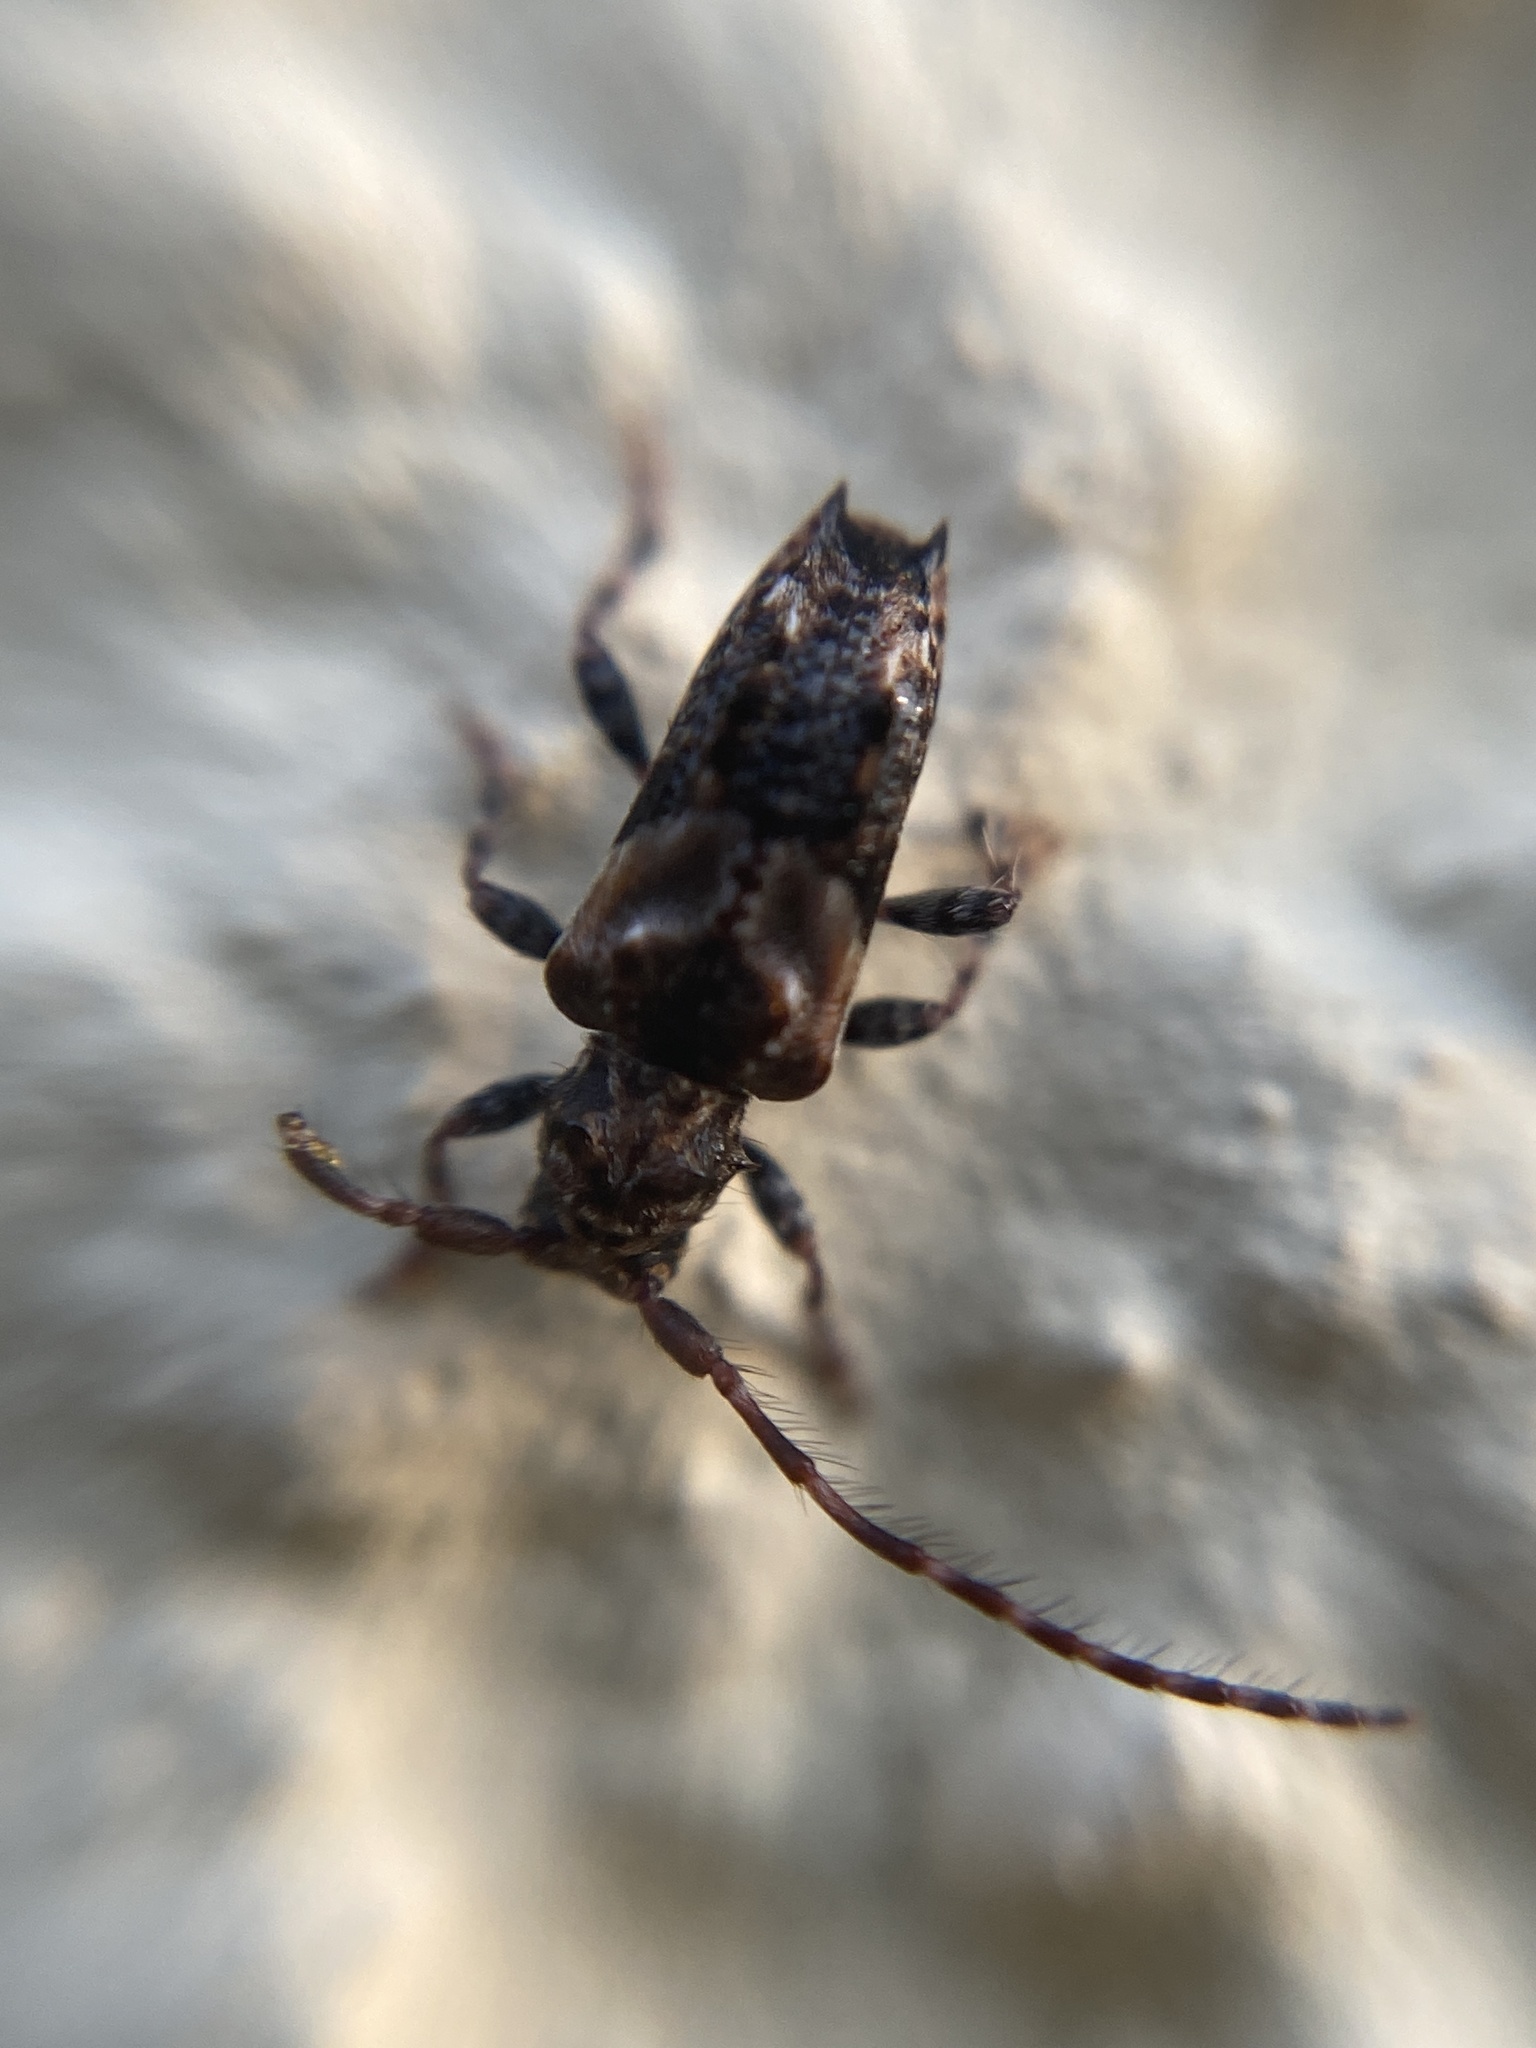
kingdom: Animalia
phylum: Arthropoda
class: Insecta
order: Coleoptera
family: Cerambycidae
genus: Pogonocherus
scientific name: Pogonocherus hispidus
